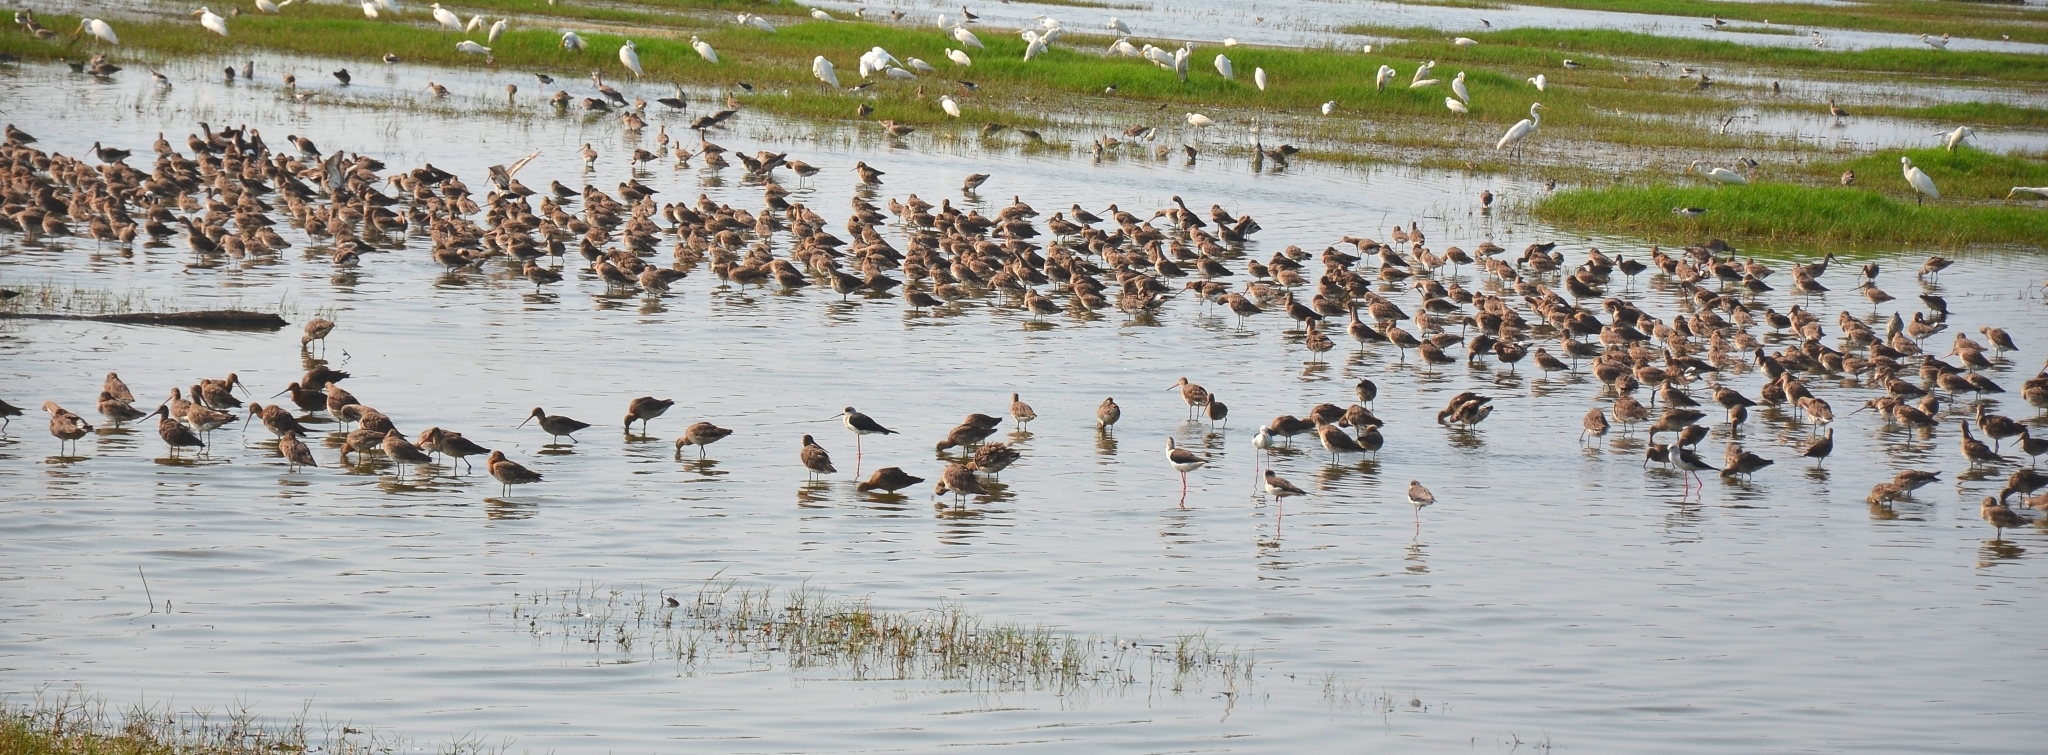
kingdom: Animalia
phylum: Chordata
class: Aves
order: Charadriiformes
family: Scolopacidae
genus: Limosa
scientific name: Limosa limosa
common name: Black-tailed godwit
